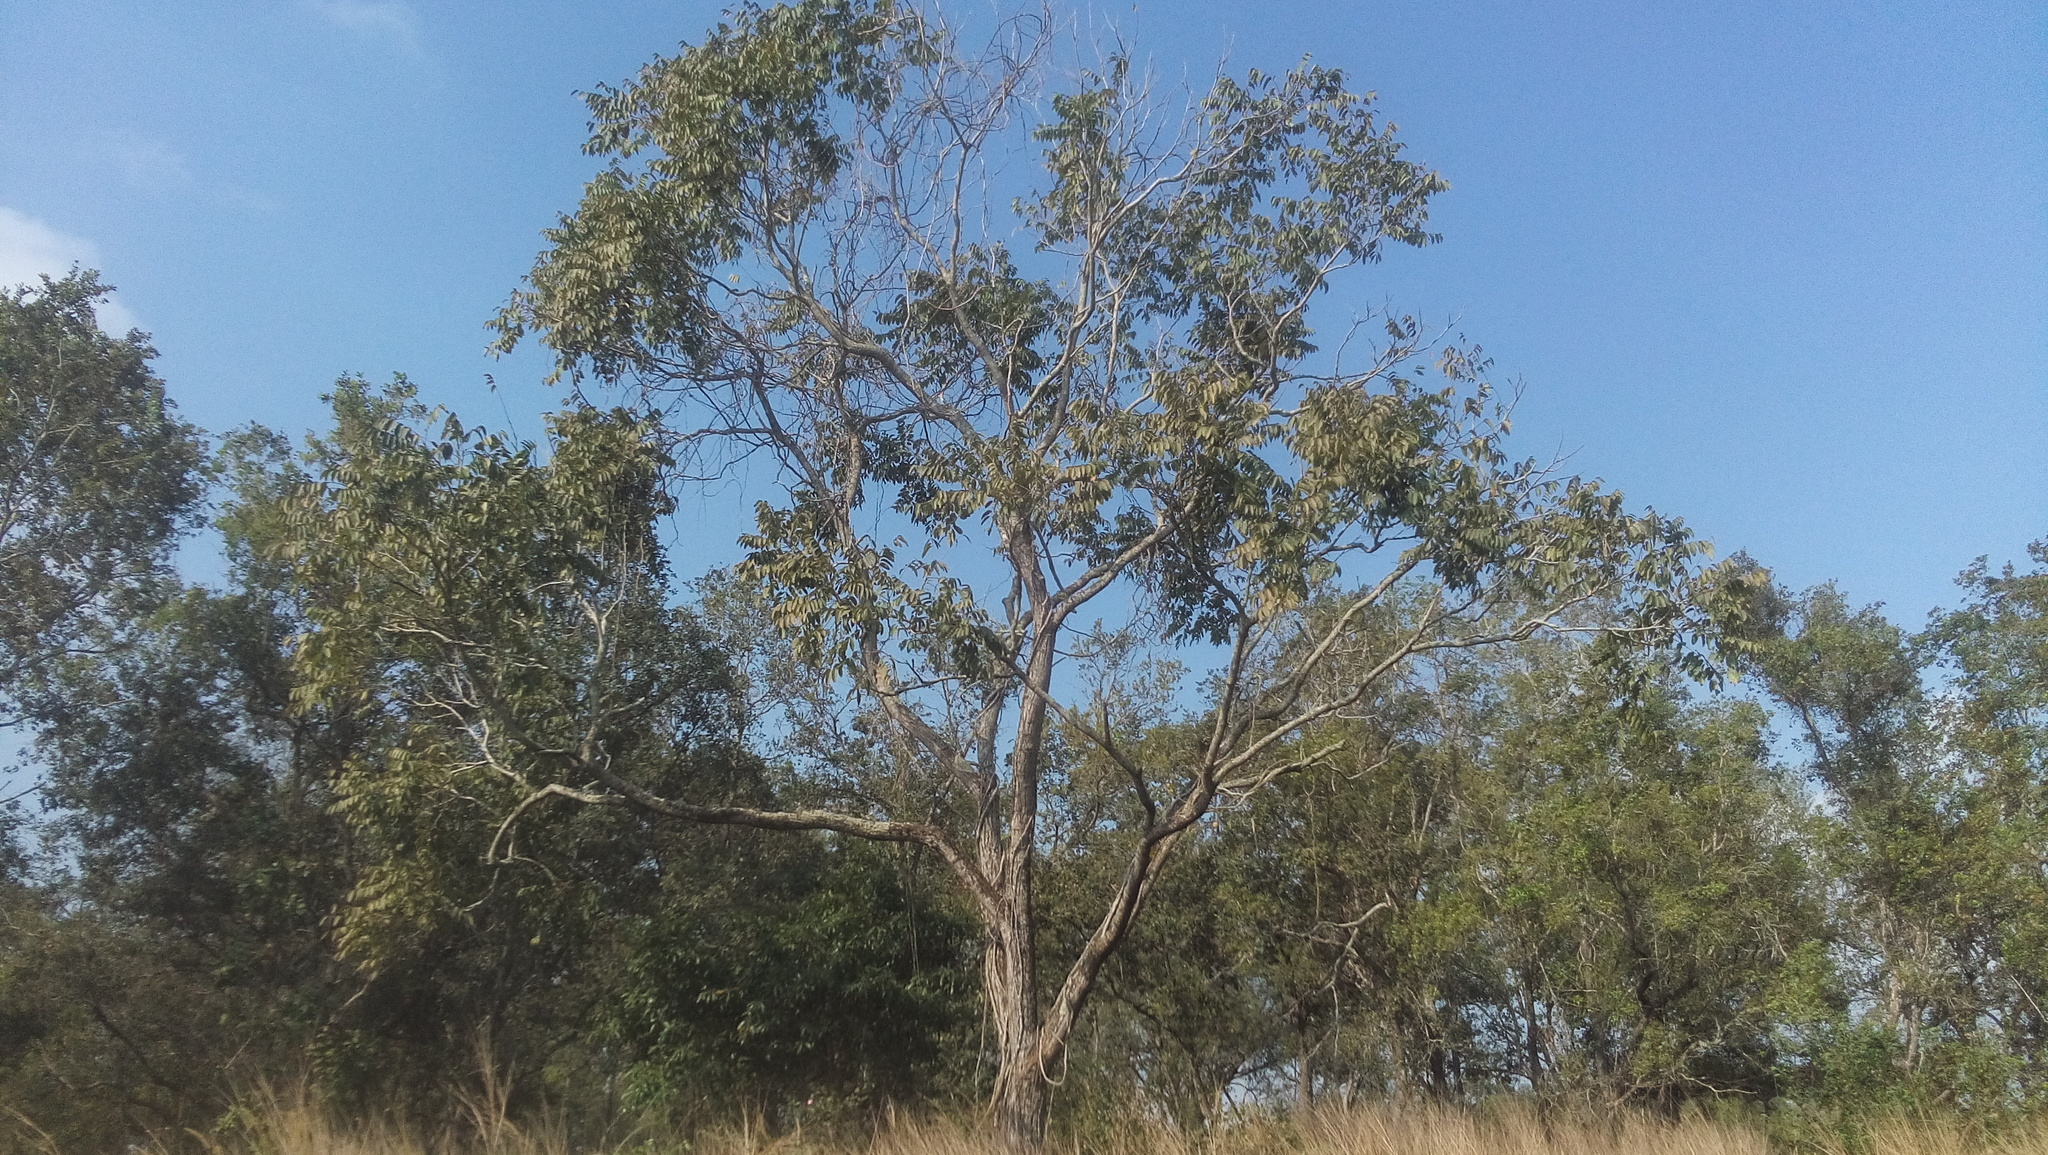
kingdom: Plantae
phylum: Tracheophyta
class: Magnoliopsida
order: Sapindales
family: Meliaceae
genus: Cedrela
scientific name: Cedrela odorata
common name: Red cedar
